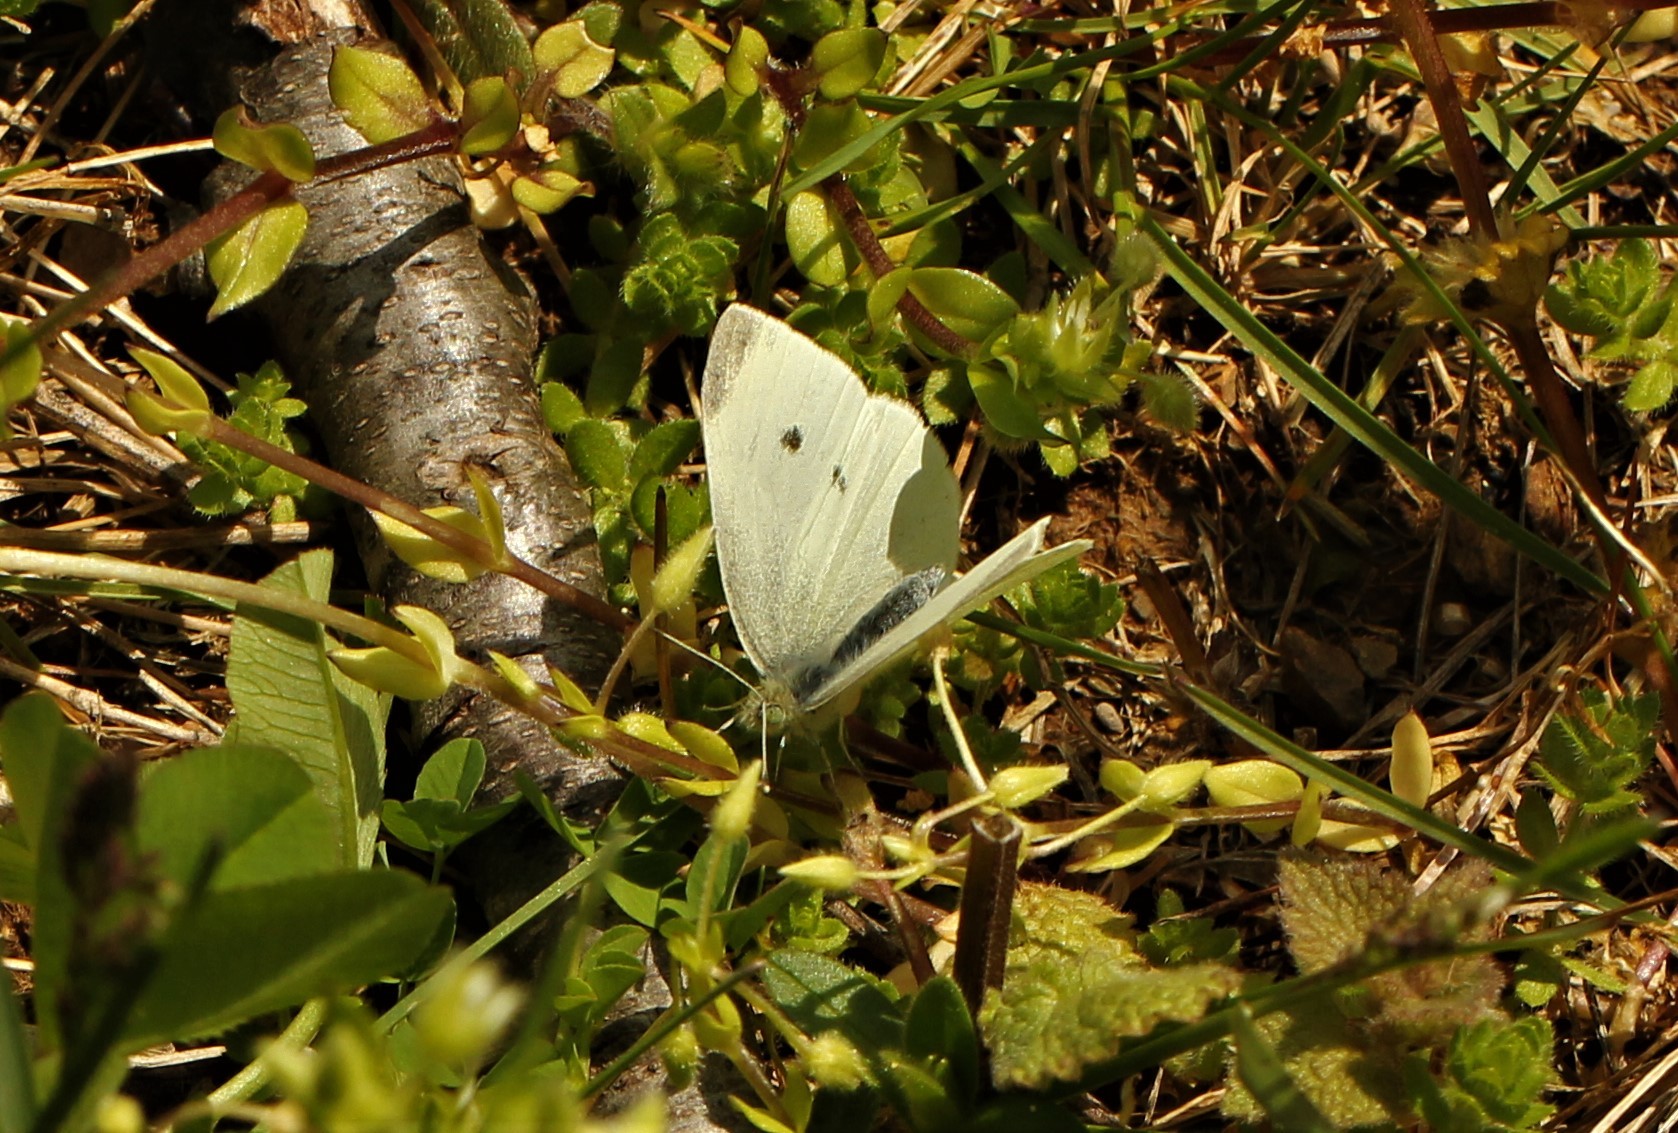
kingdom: Animalia
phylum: Arthropoda
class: Insecta
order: Lepidoptera
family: Pieridae
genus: Pieris
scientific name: Pieris rapae
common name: Small white
